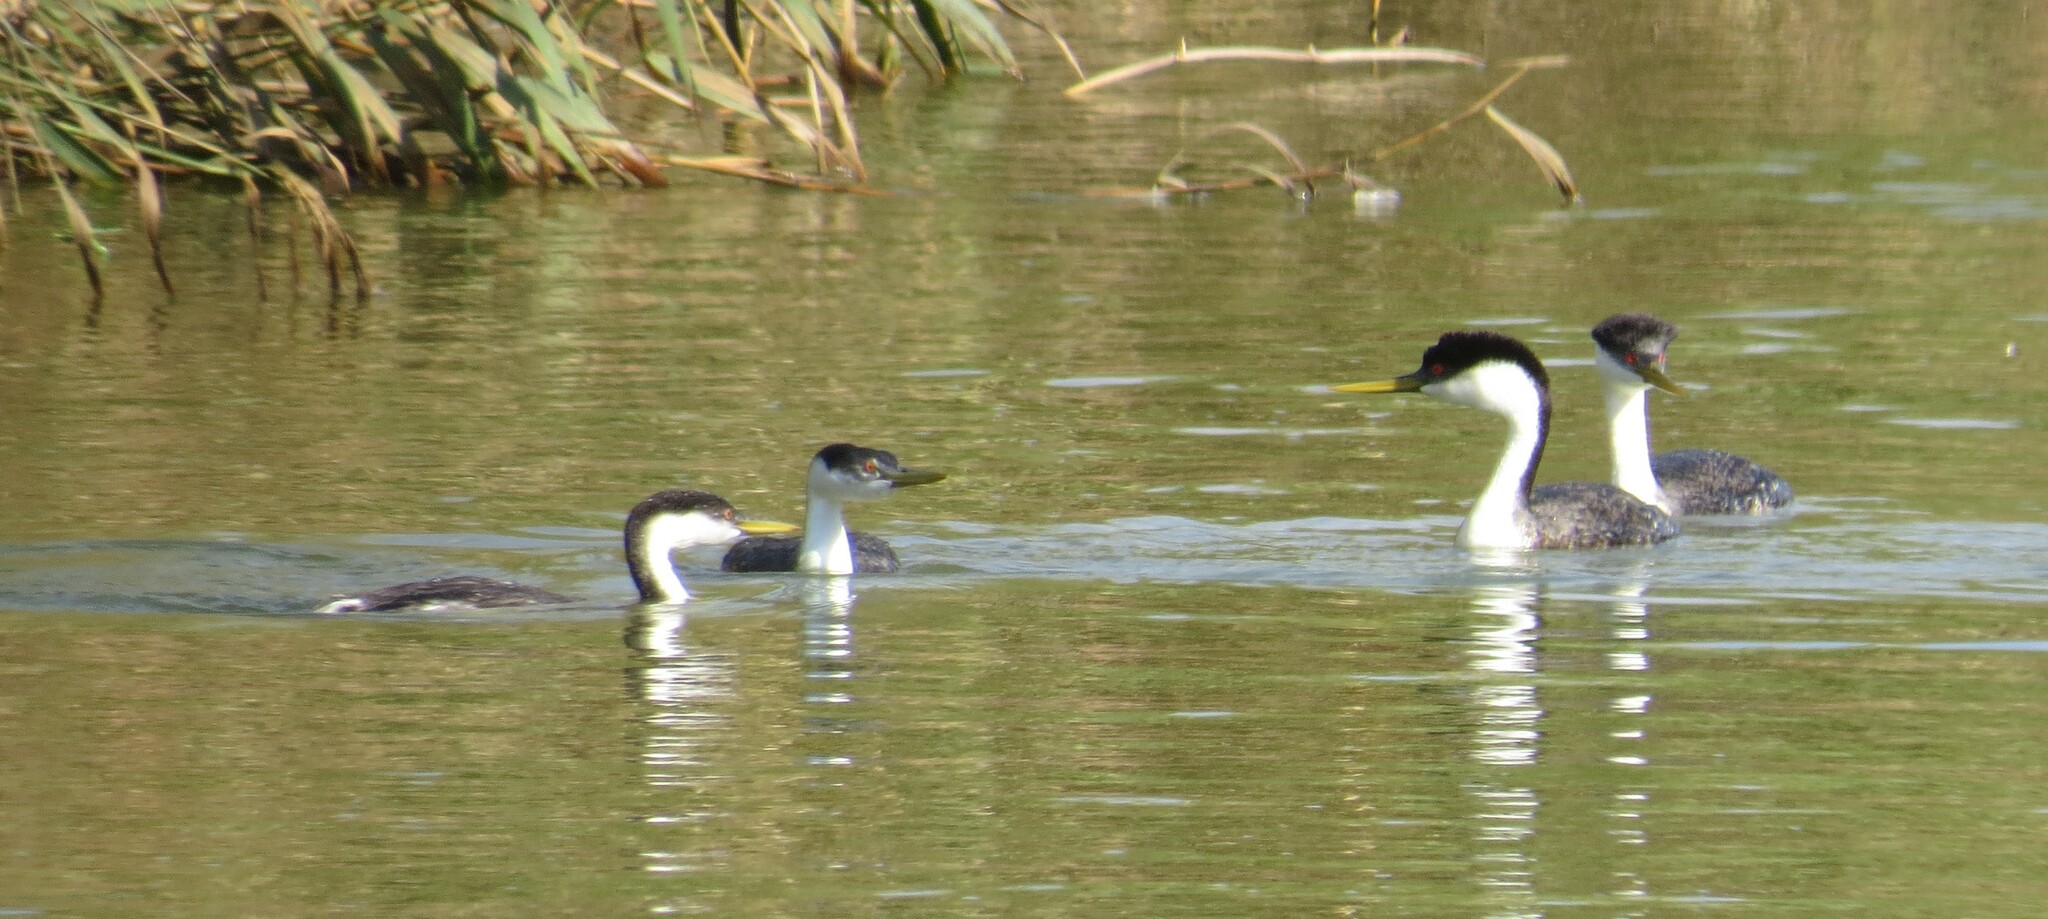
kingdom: Animalia
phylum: Chordata
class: Aves
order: Podicipediformes
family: Podicipedidae
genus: Aechmophorus
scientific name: Aechmophorus occidentalis
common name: Western grebe
